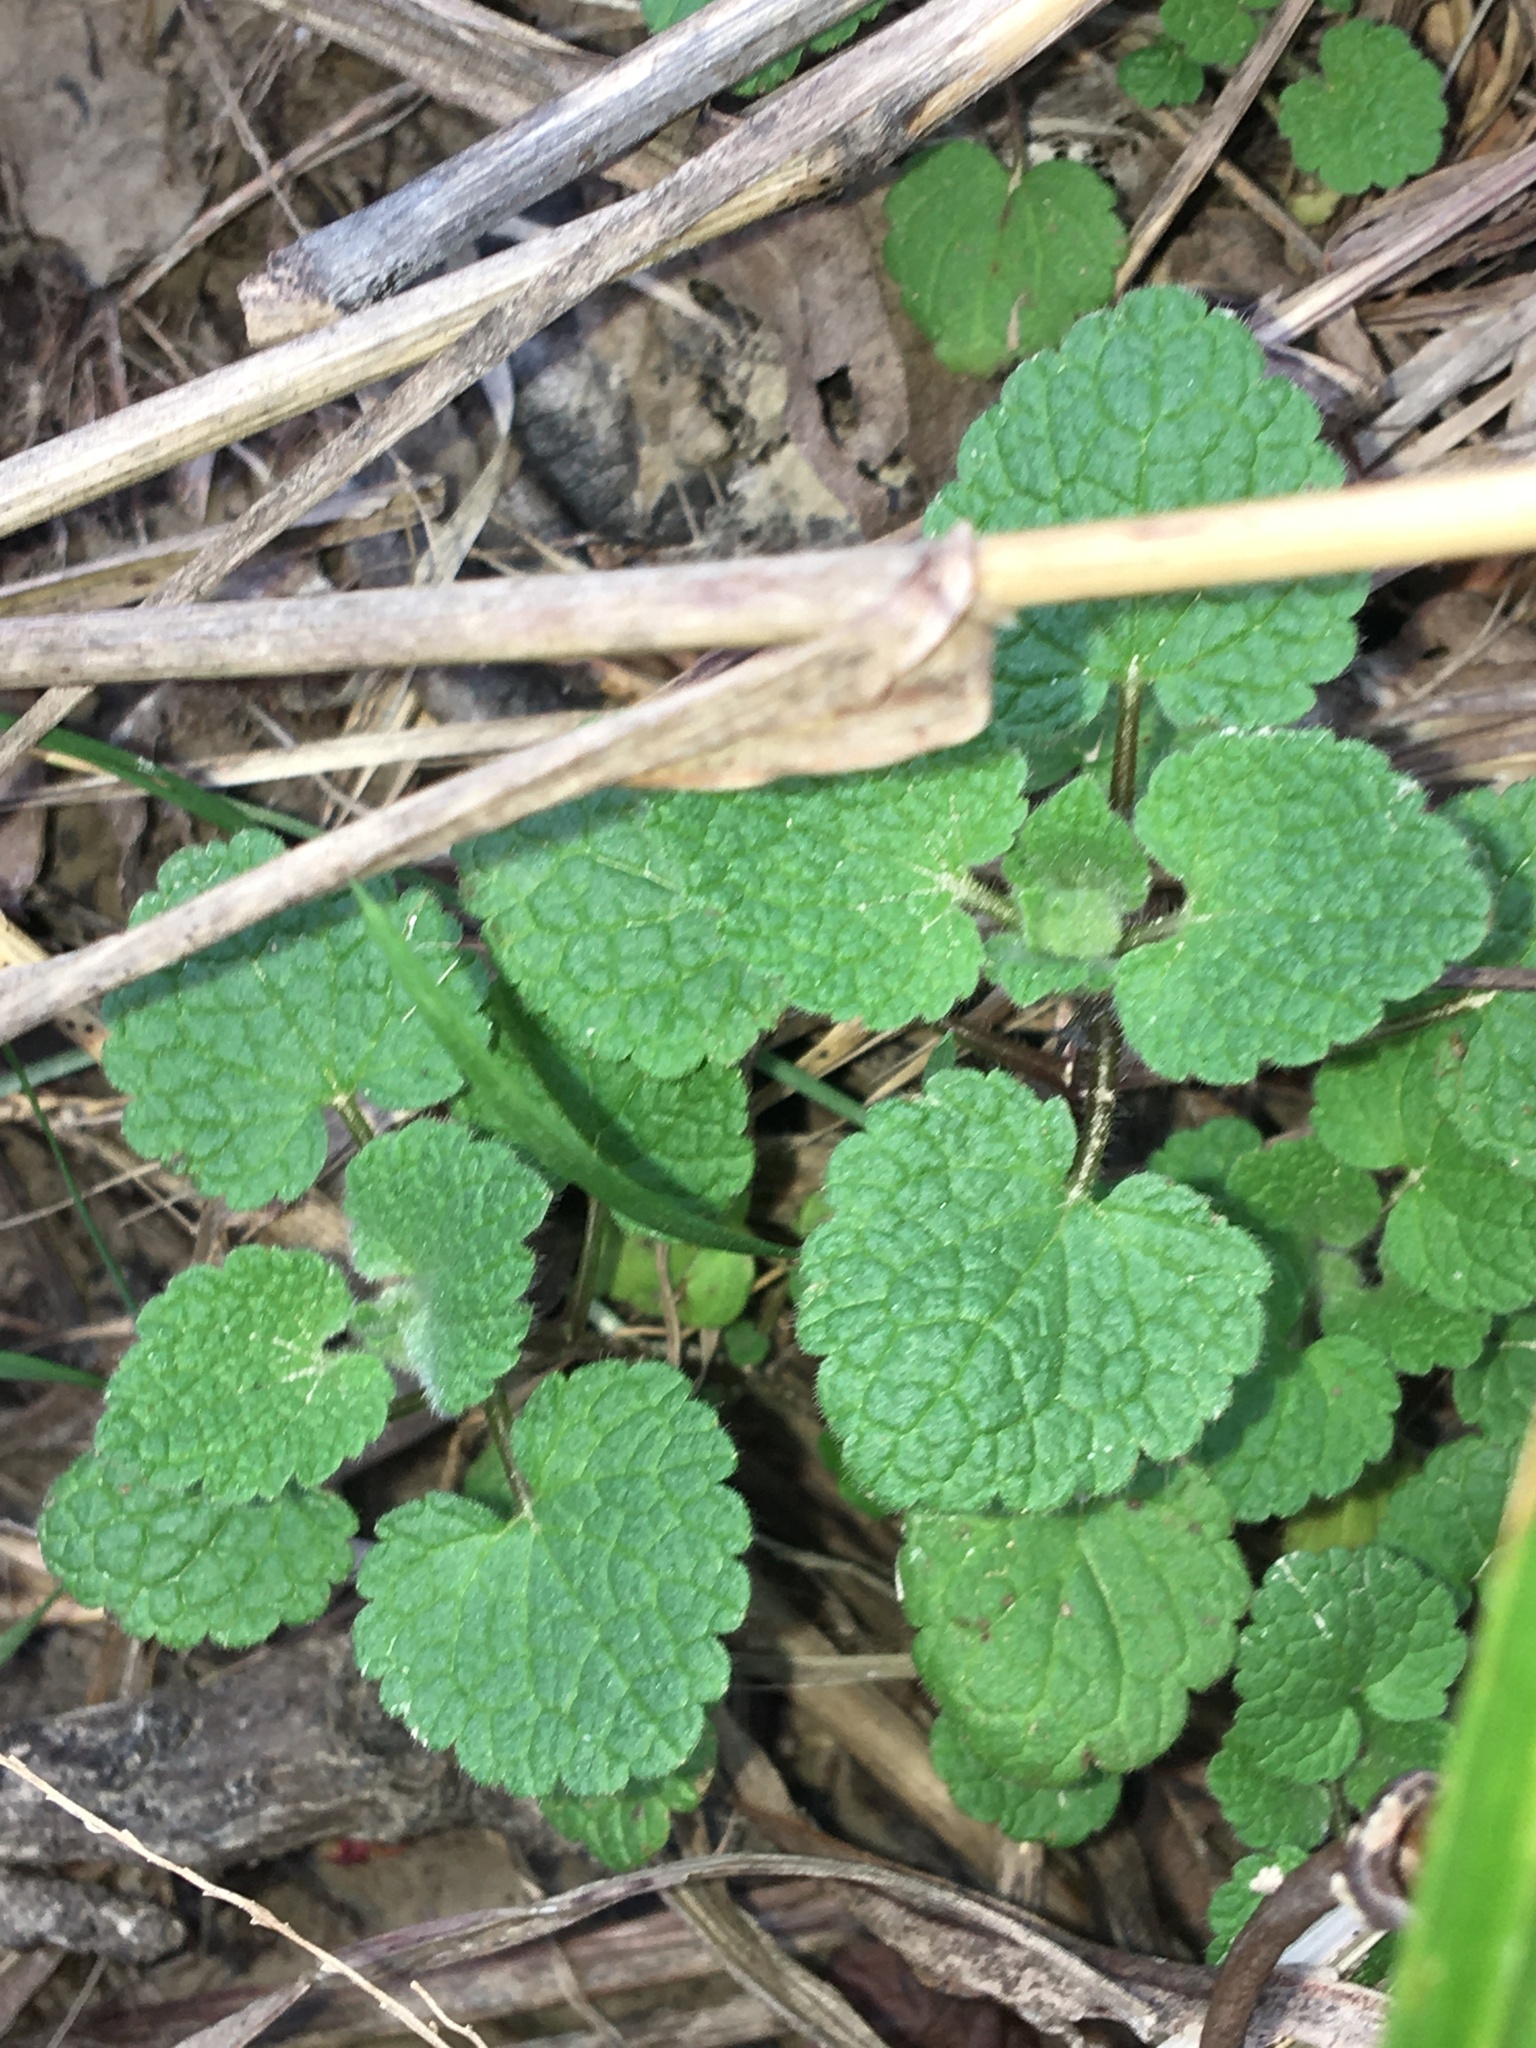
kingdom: Plantae
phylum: Tracheophyta
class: Magnoliopsida
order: Lamiales
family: Lamiaceae
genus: Lamium
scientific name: Lamium purpureum
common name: Red dead-nettle
